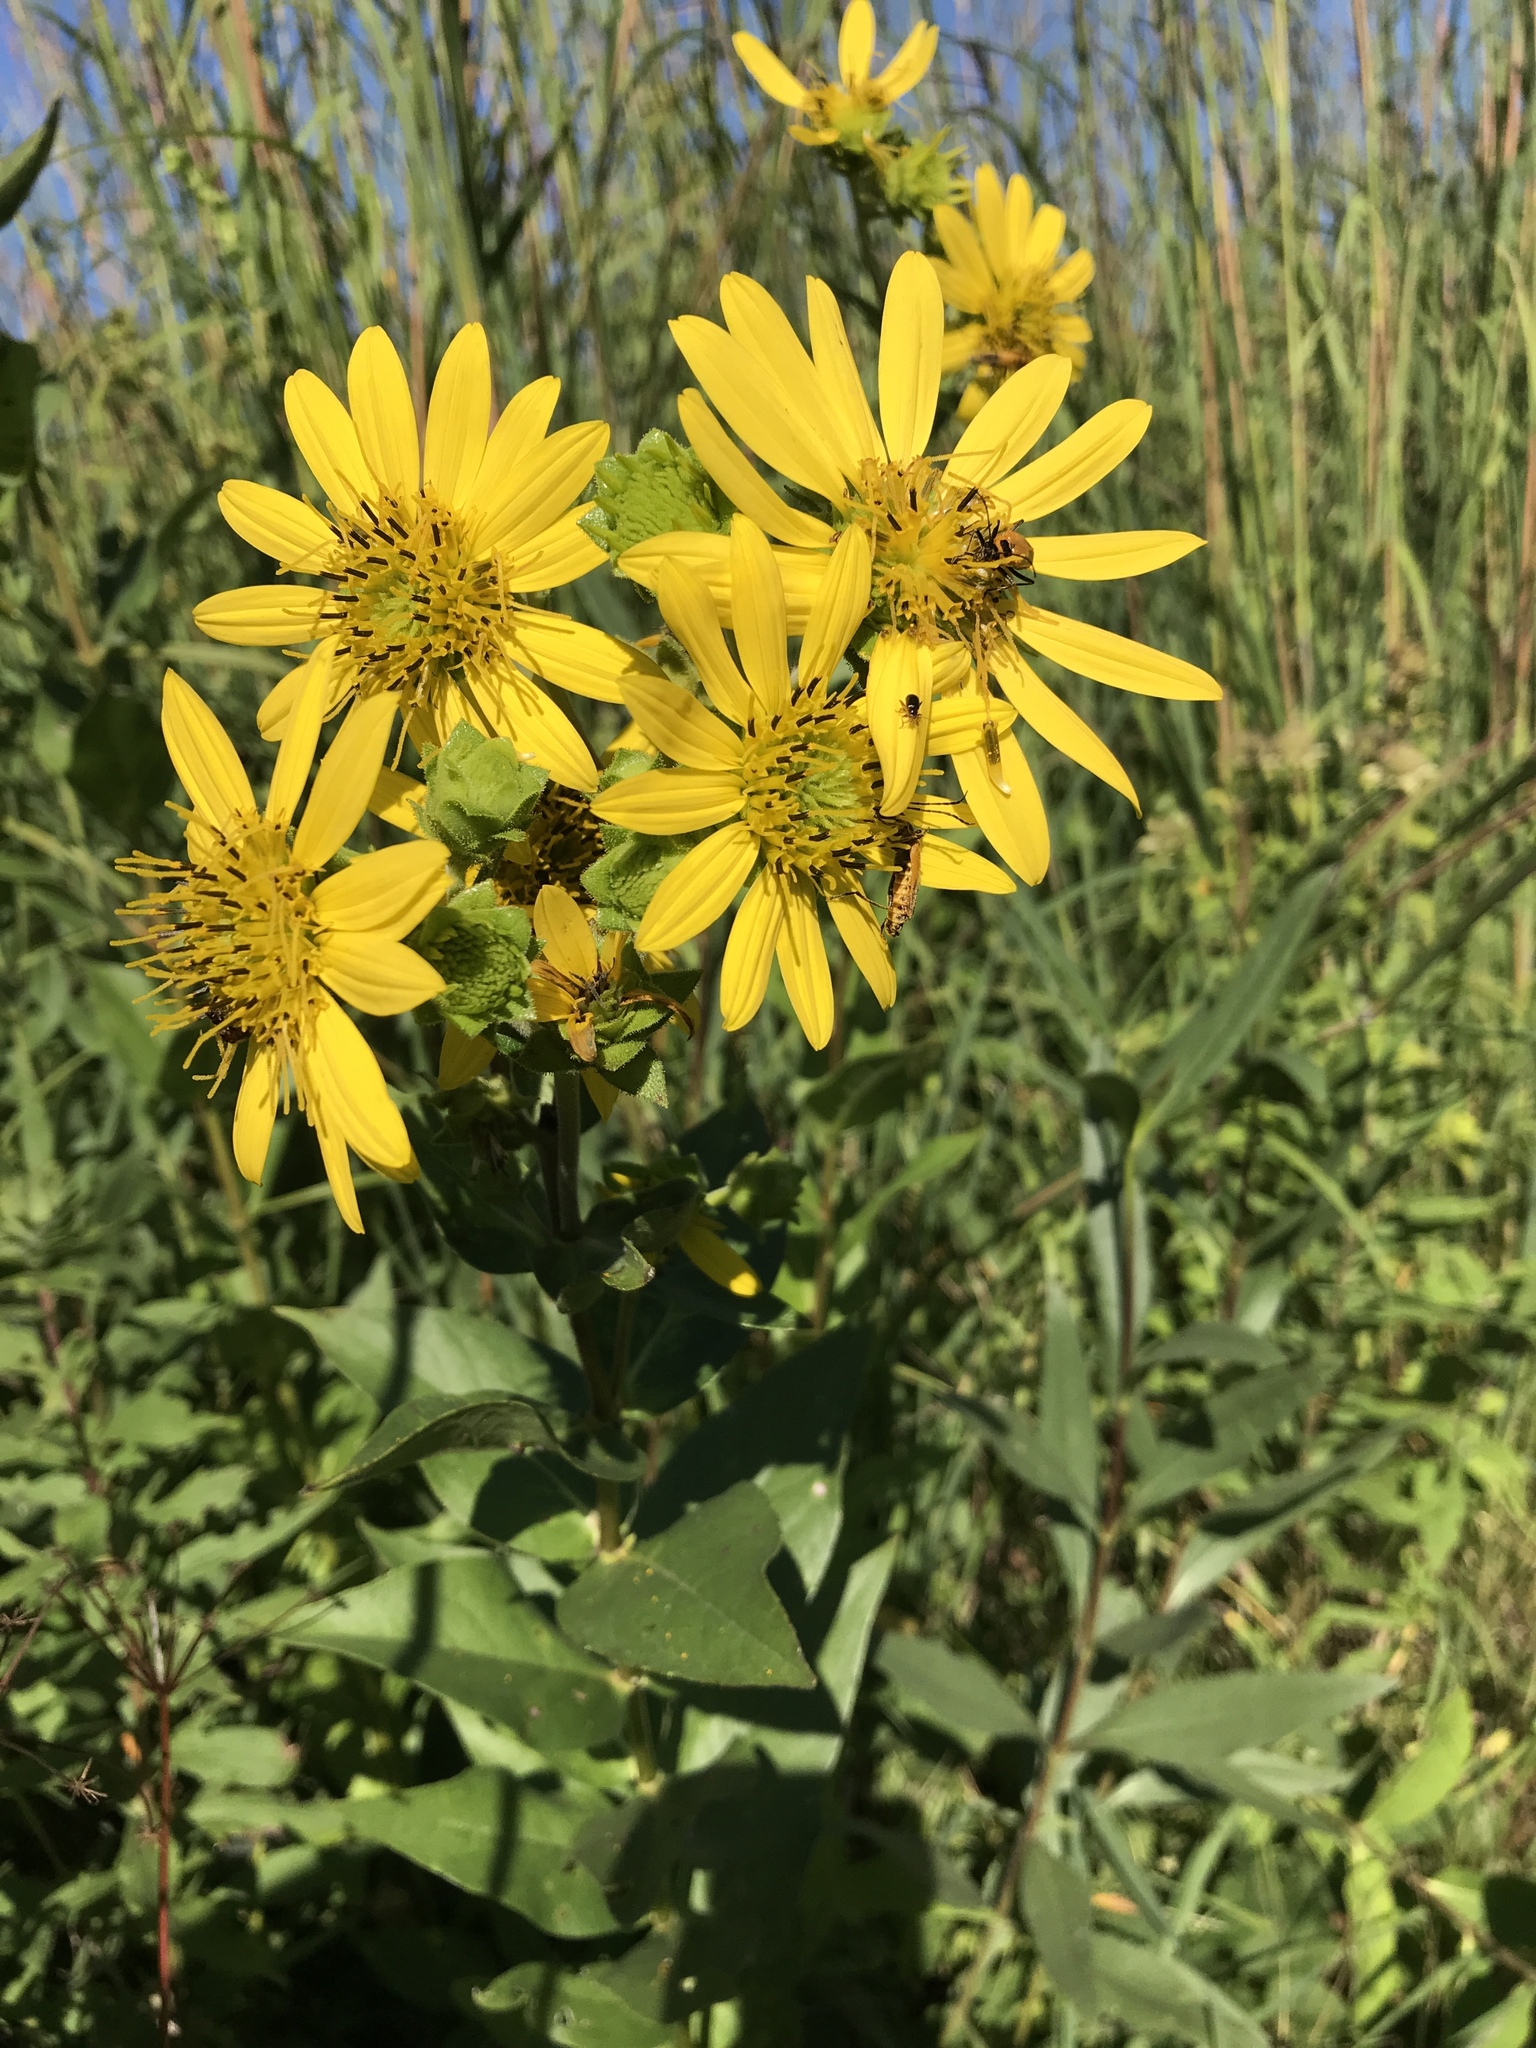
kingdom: Plantae
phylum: Tracheophyta
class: Magnoliopsida
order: Asterales
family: Asteraceae
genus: Silphium
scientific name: Silphium integrifolium
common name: Whole-leaf rosinweed
